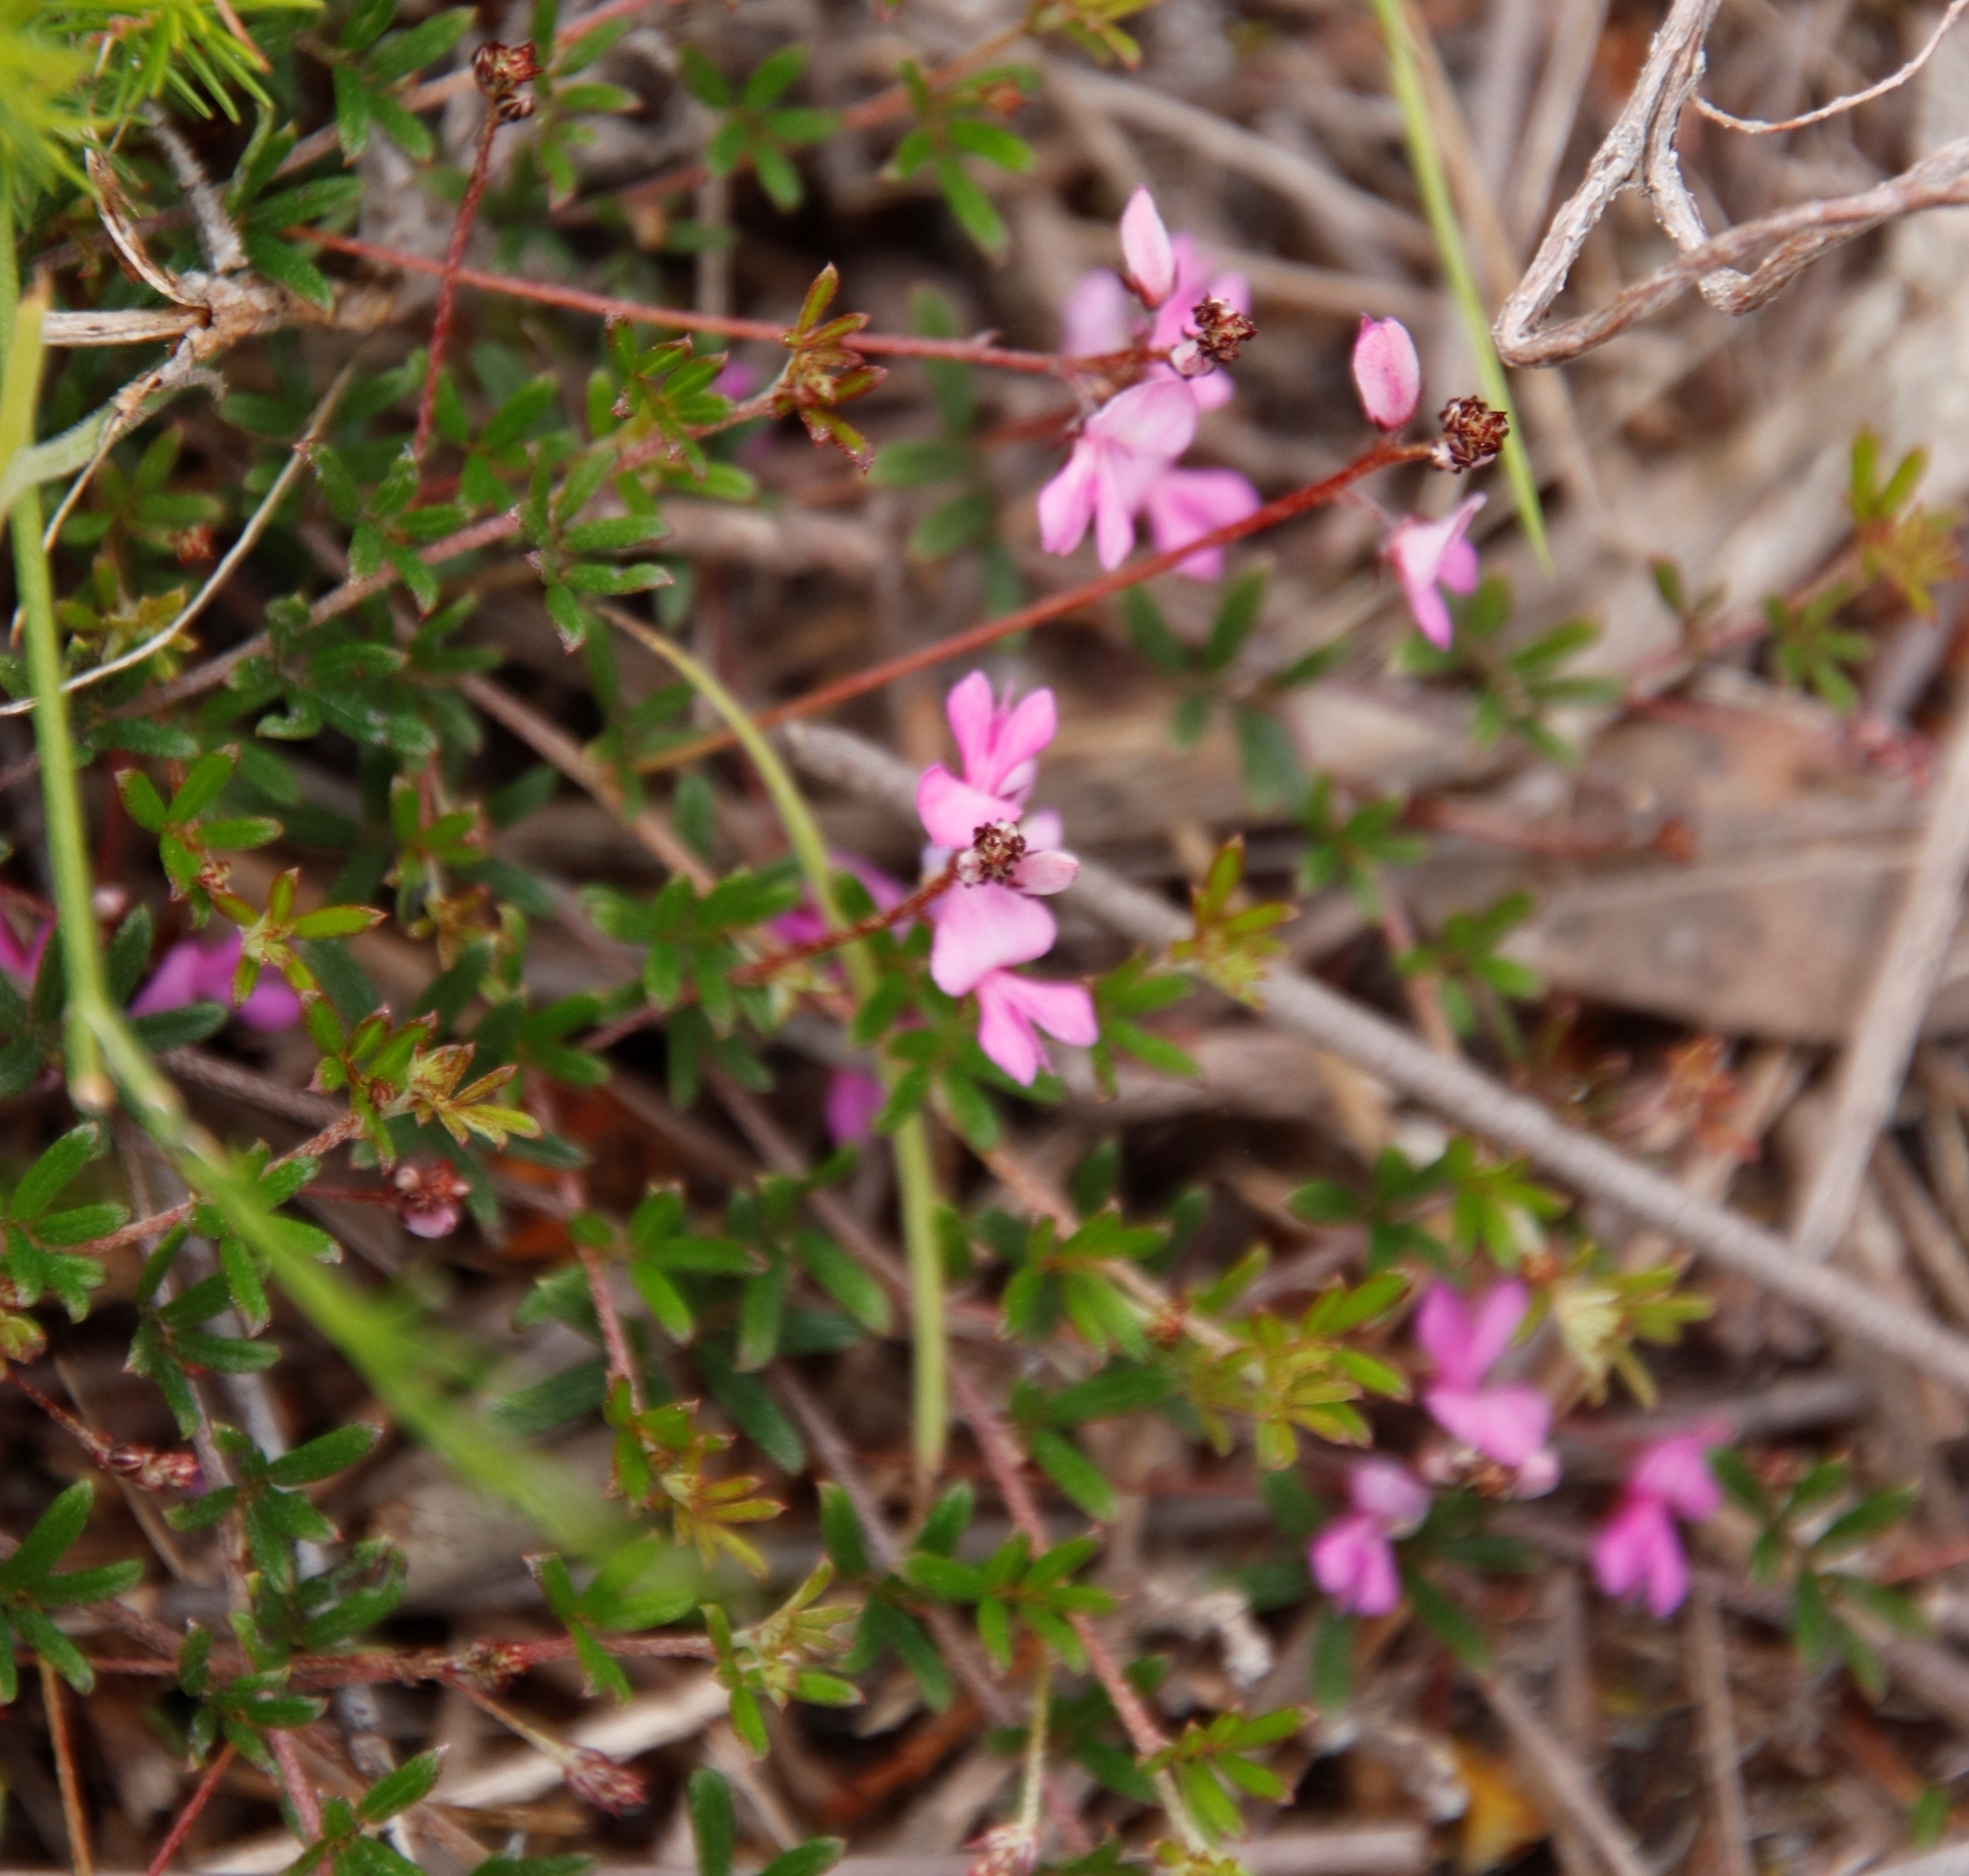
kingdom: Plantae
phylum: Tracheophyta
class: Magnoliopsida
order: Fabales
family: Fabaceae
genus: Indigofera
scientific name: Indigofera angustifolia
